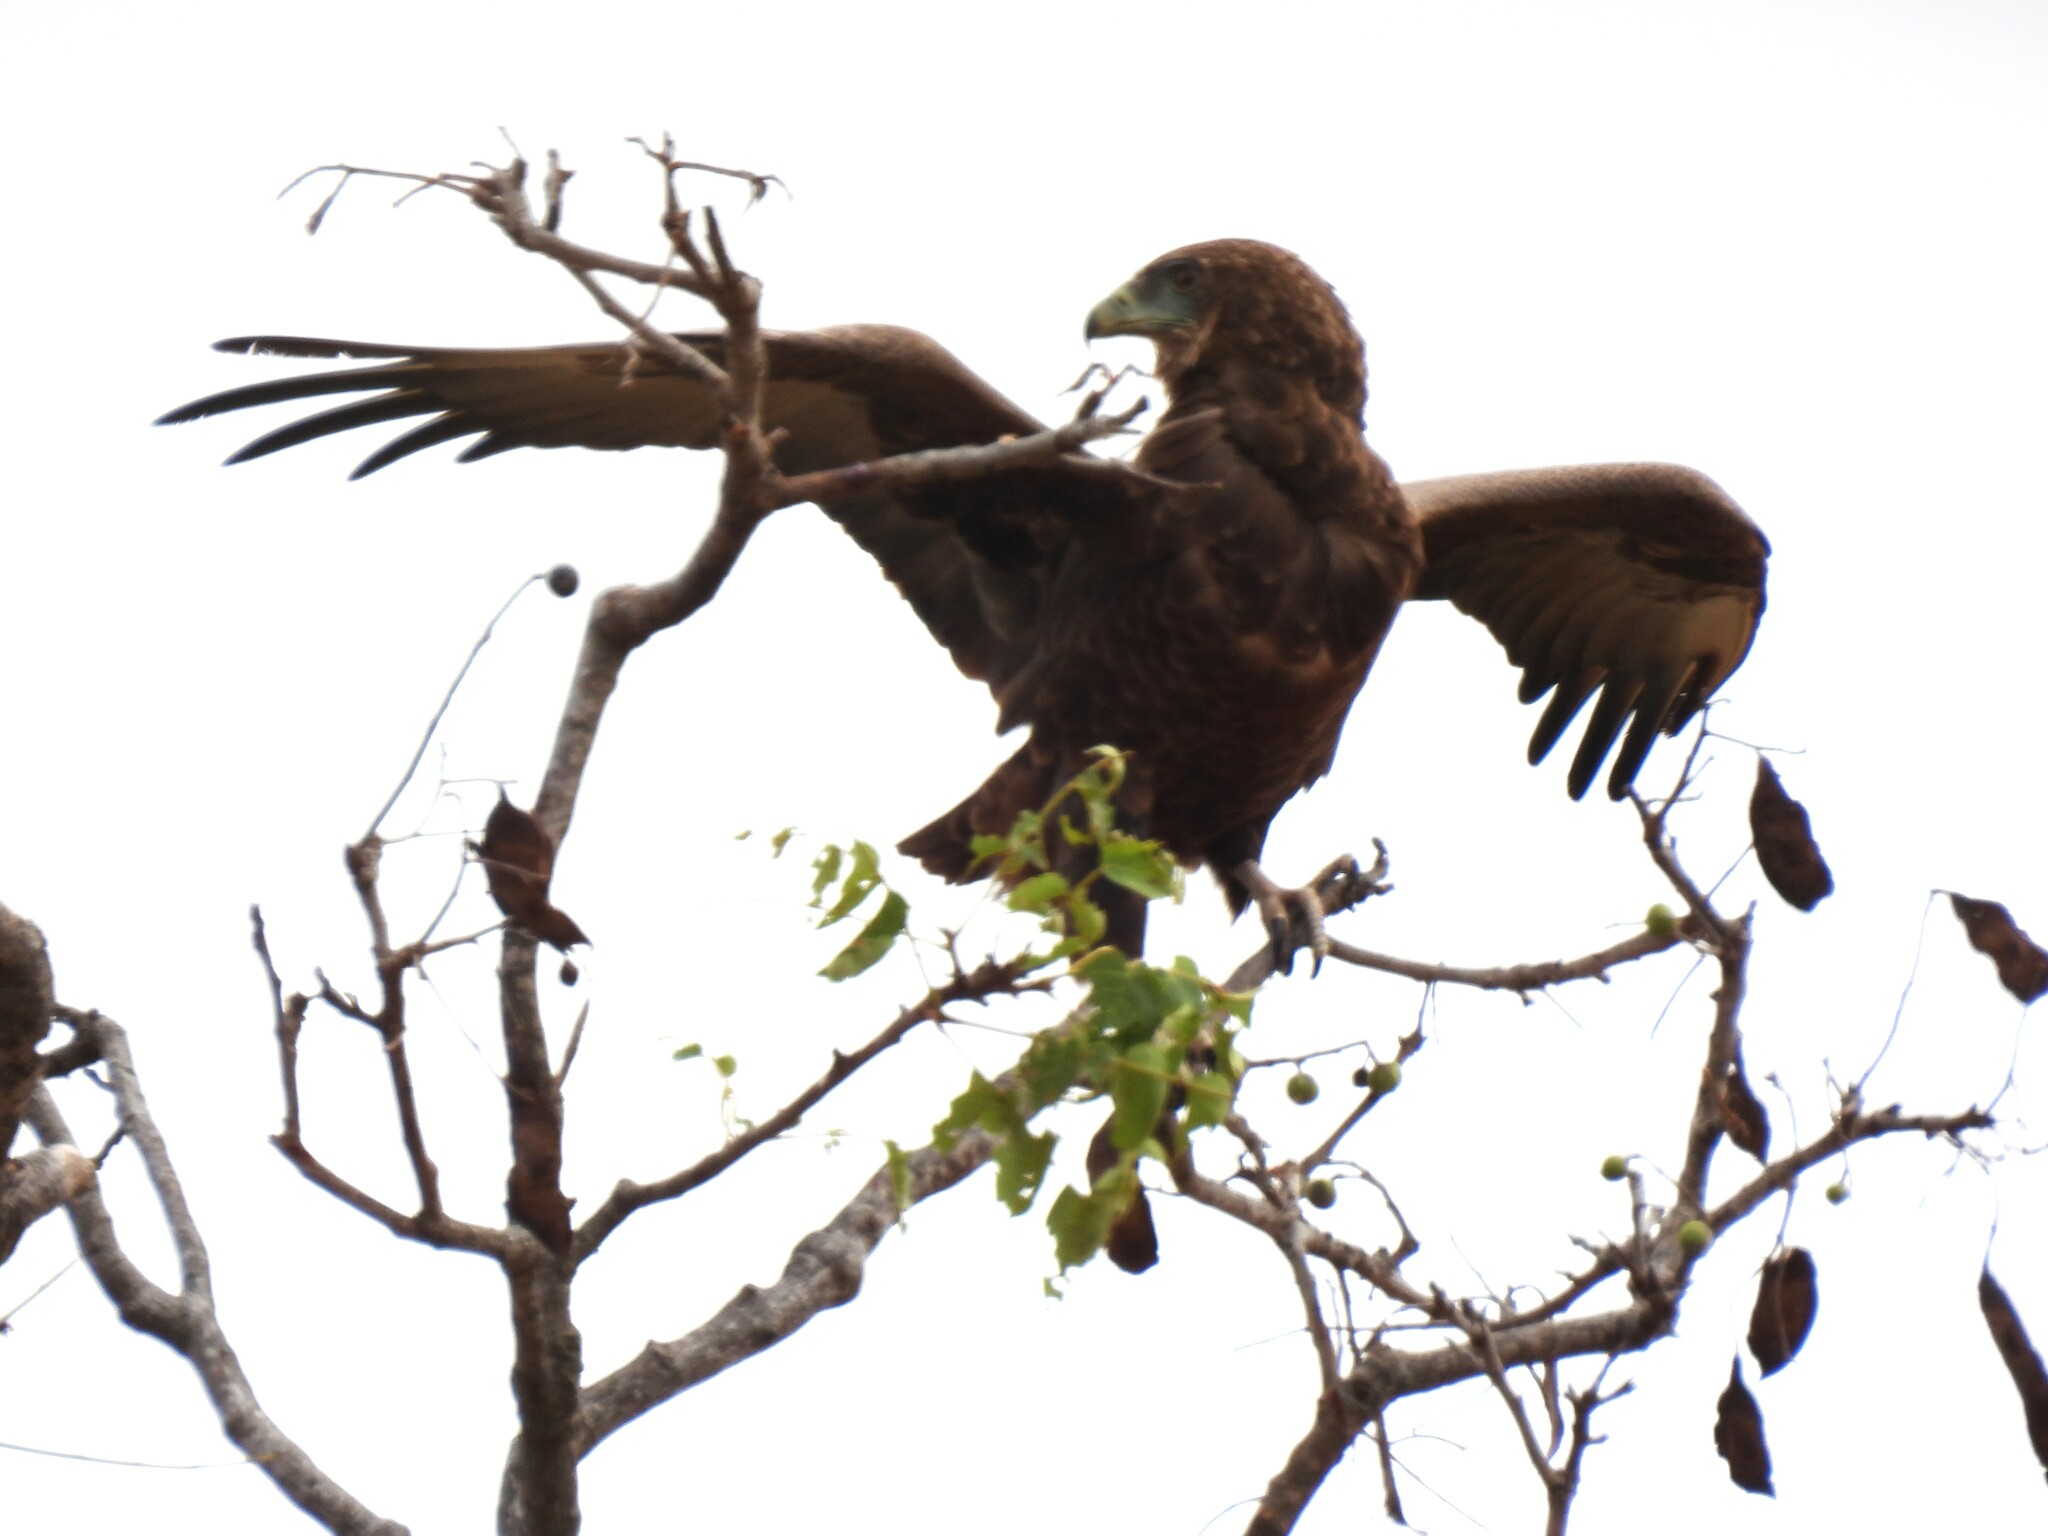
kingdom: Animalia
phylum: Chordata
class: Aves
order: Accipitriformes
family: Accipitridae
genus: Terathopius
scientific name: Terathopius ecaudatus
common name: Bateleur
